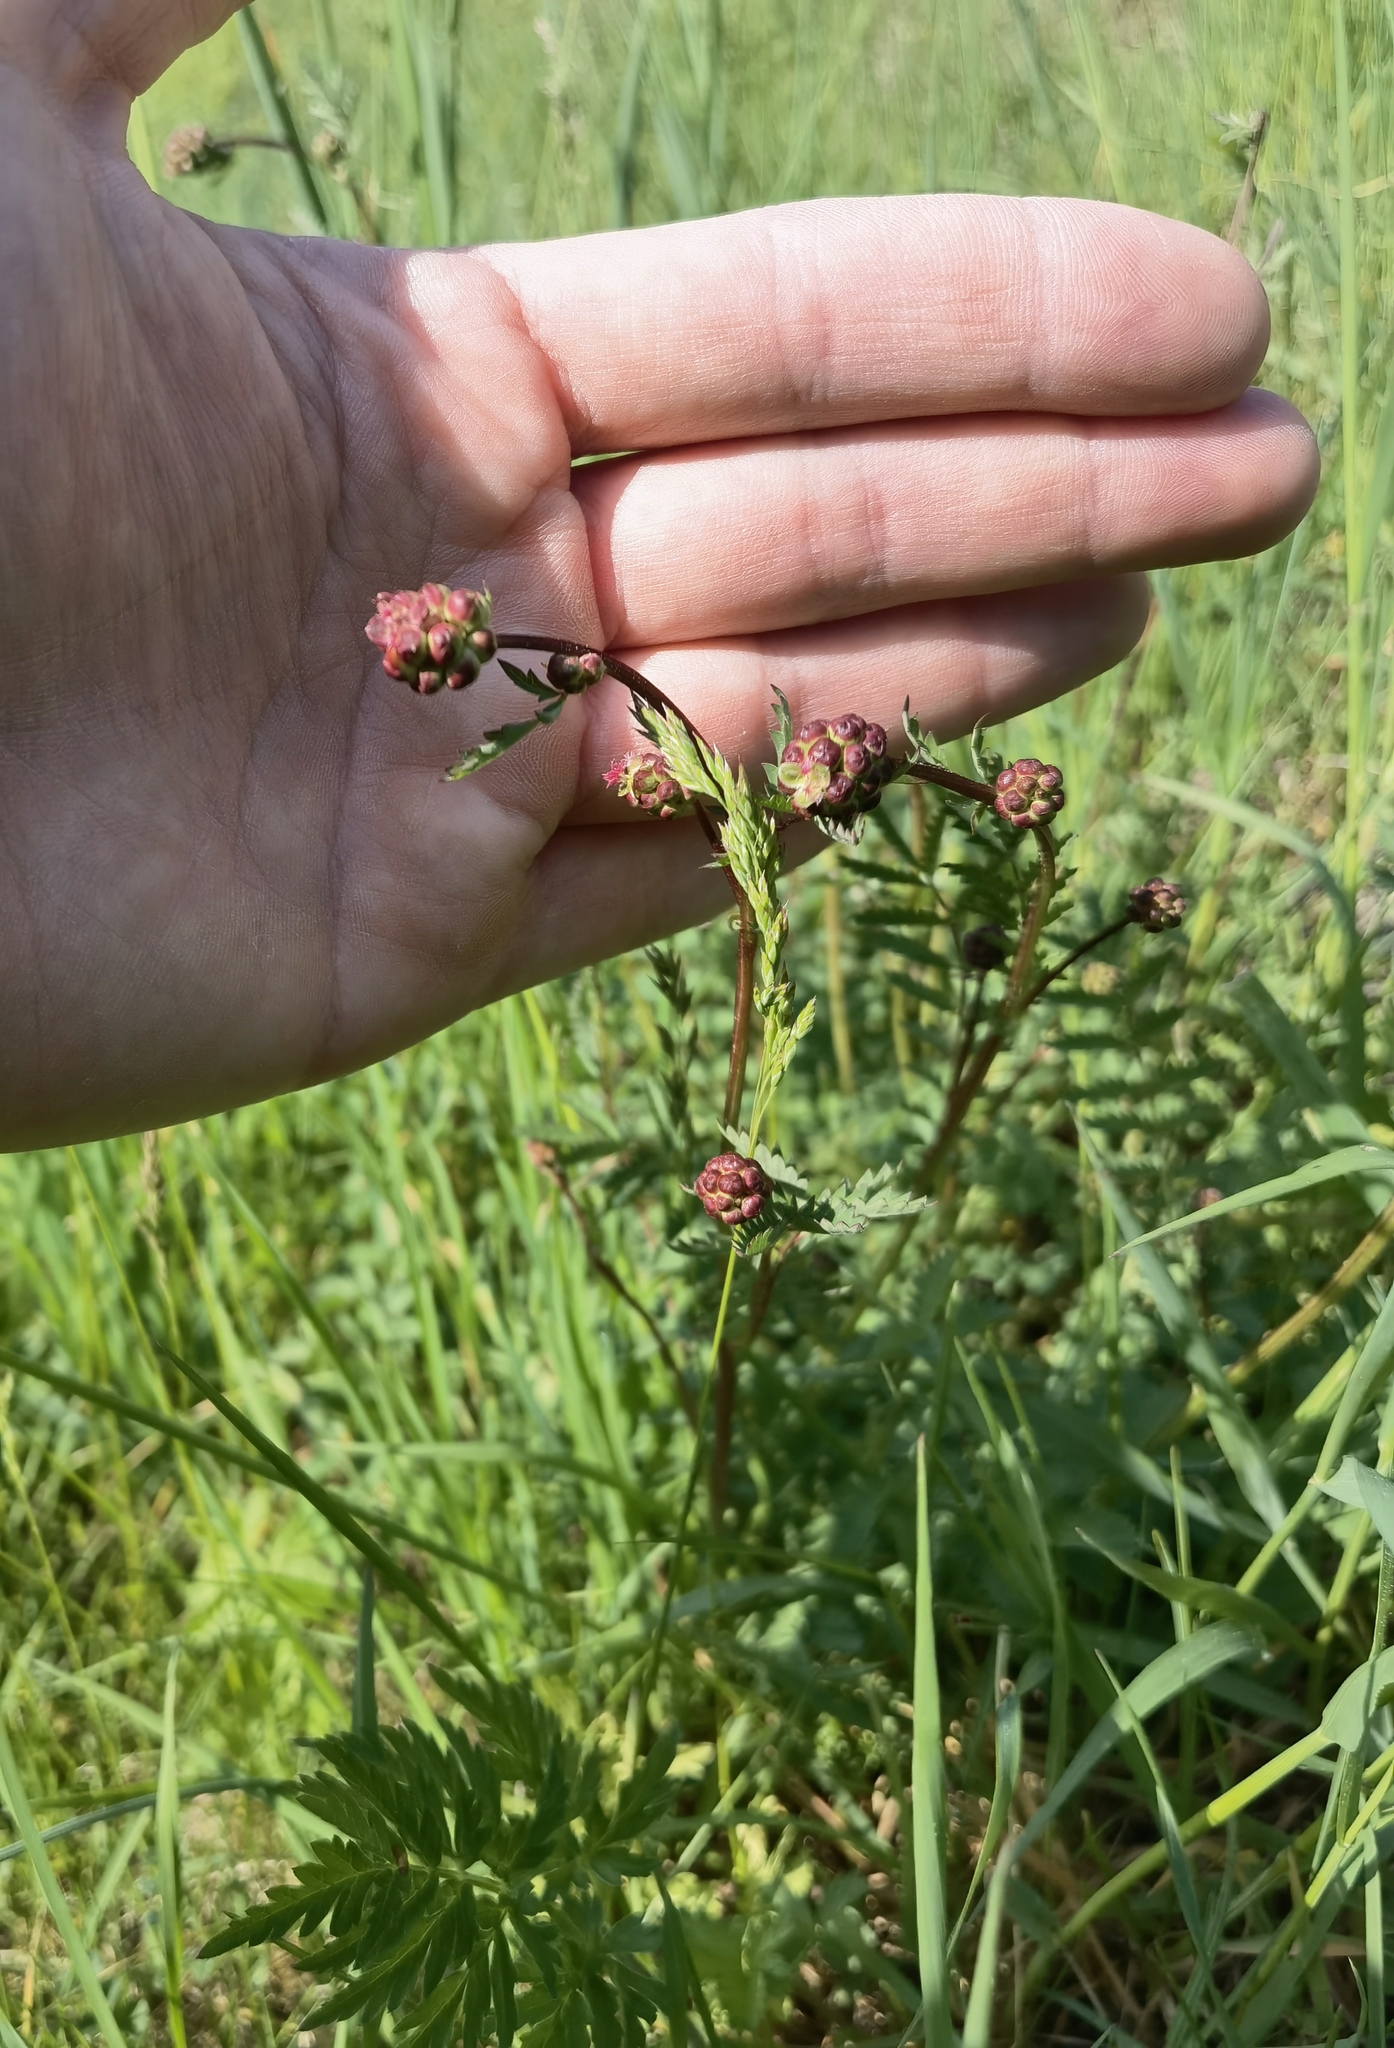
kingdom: Plantae
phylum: Tracheophyta
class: Magnoliopsida
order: Rosales
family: Rosaceae
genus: Poterium
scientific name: Poterium sanguisorba
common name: Salad burnet
